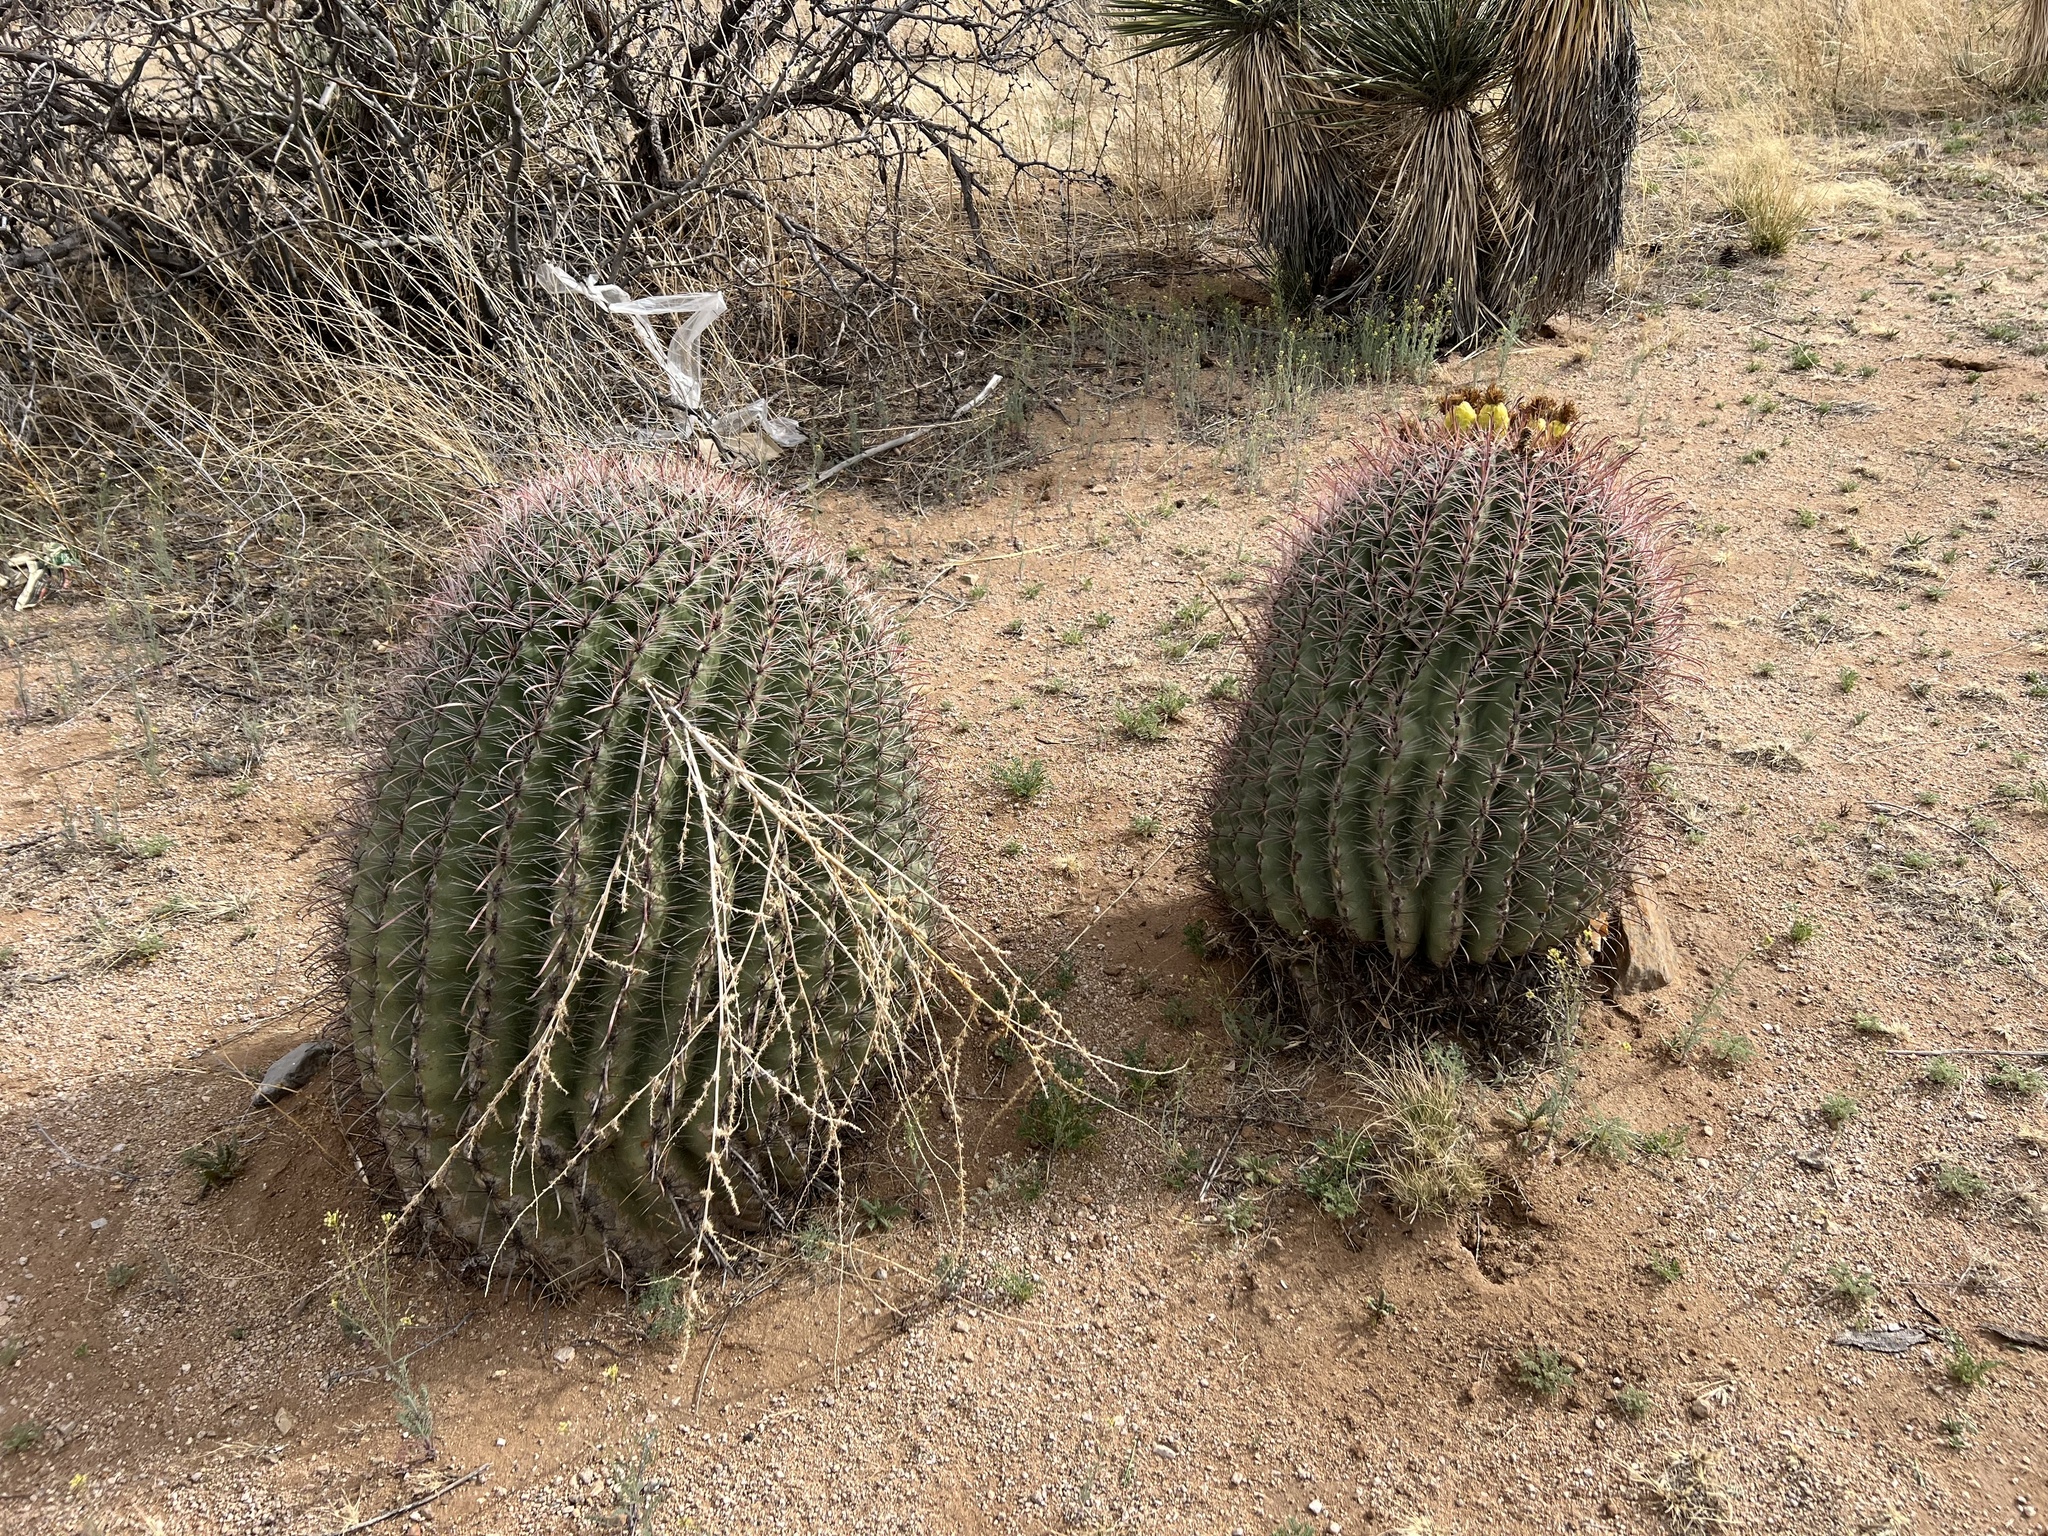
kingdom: Plantae
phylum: Tracheophyta
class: Magnoliopsida
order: Caryophyllales
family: Cactaceae
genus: Ferocactus
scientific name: Ferocactus wislizeni
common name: Candy barrel cactus
